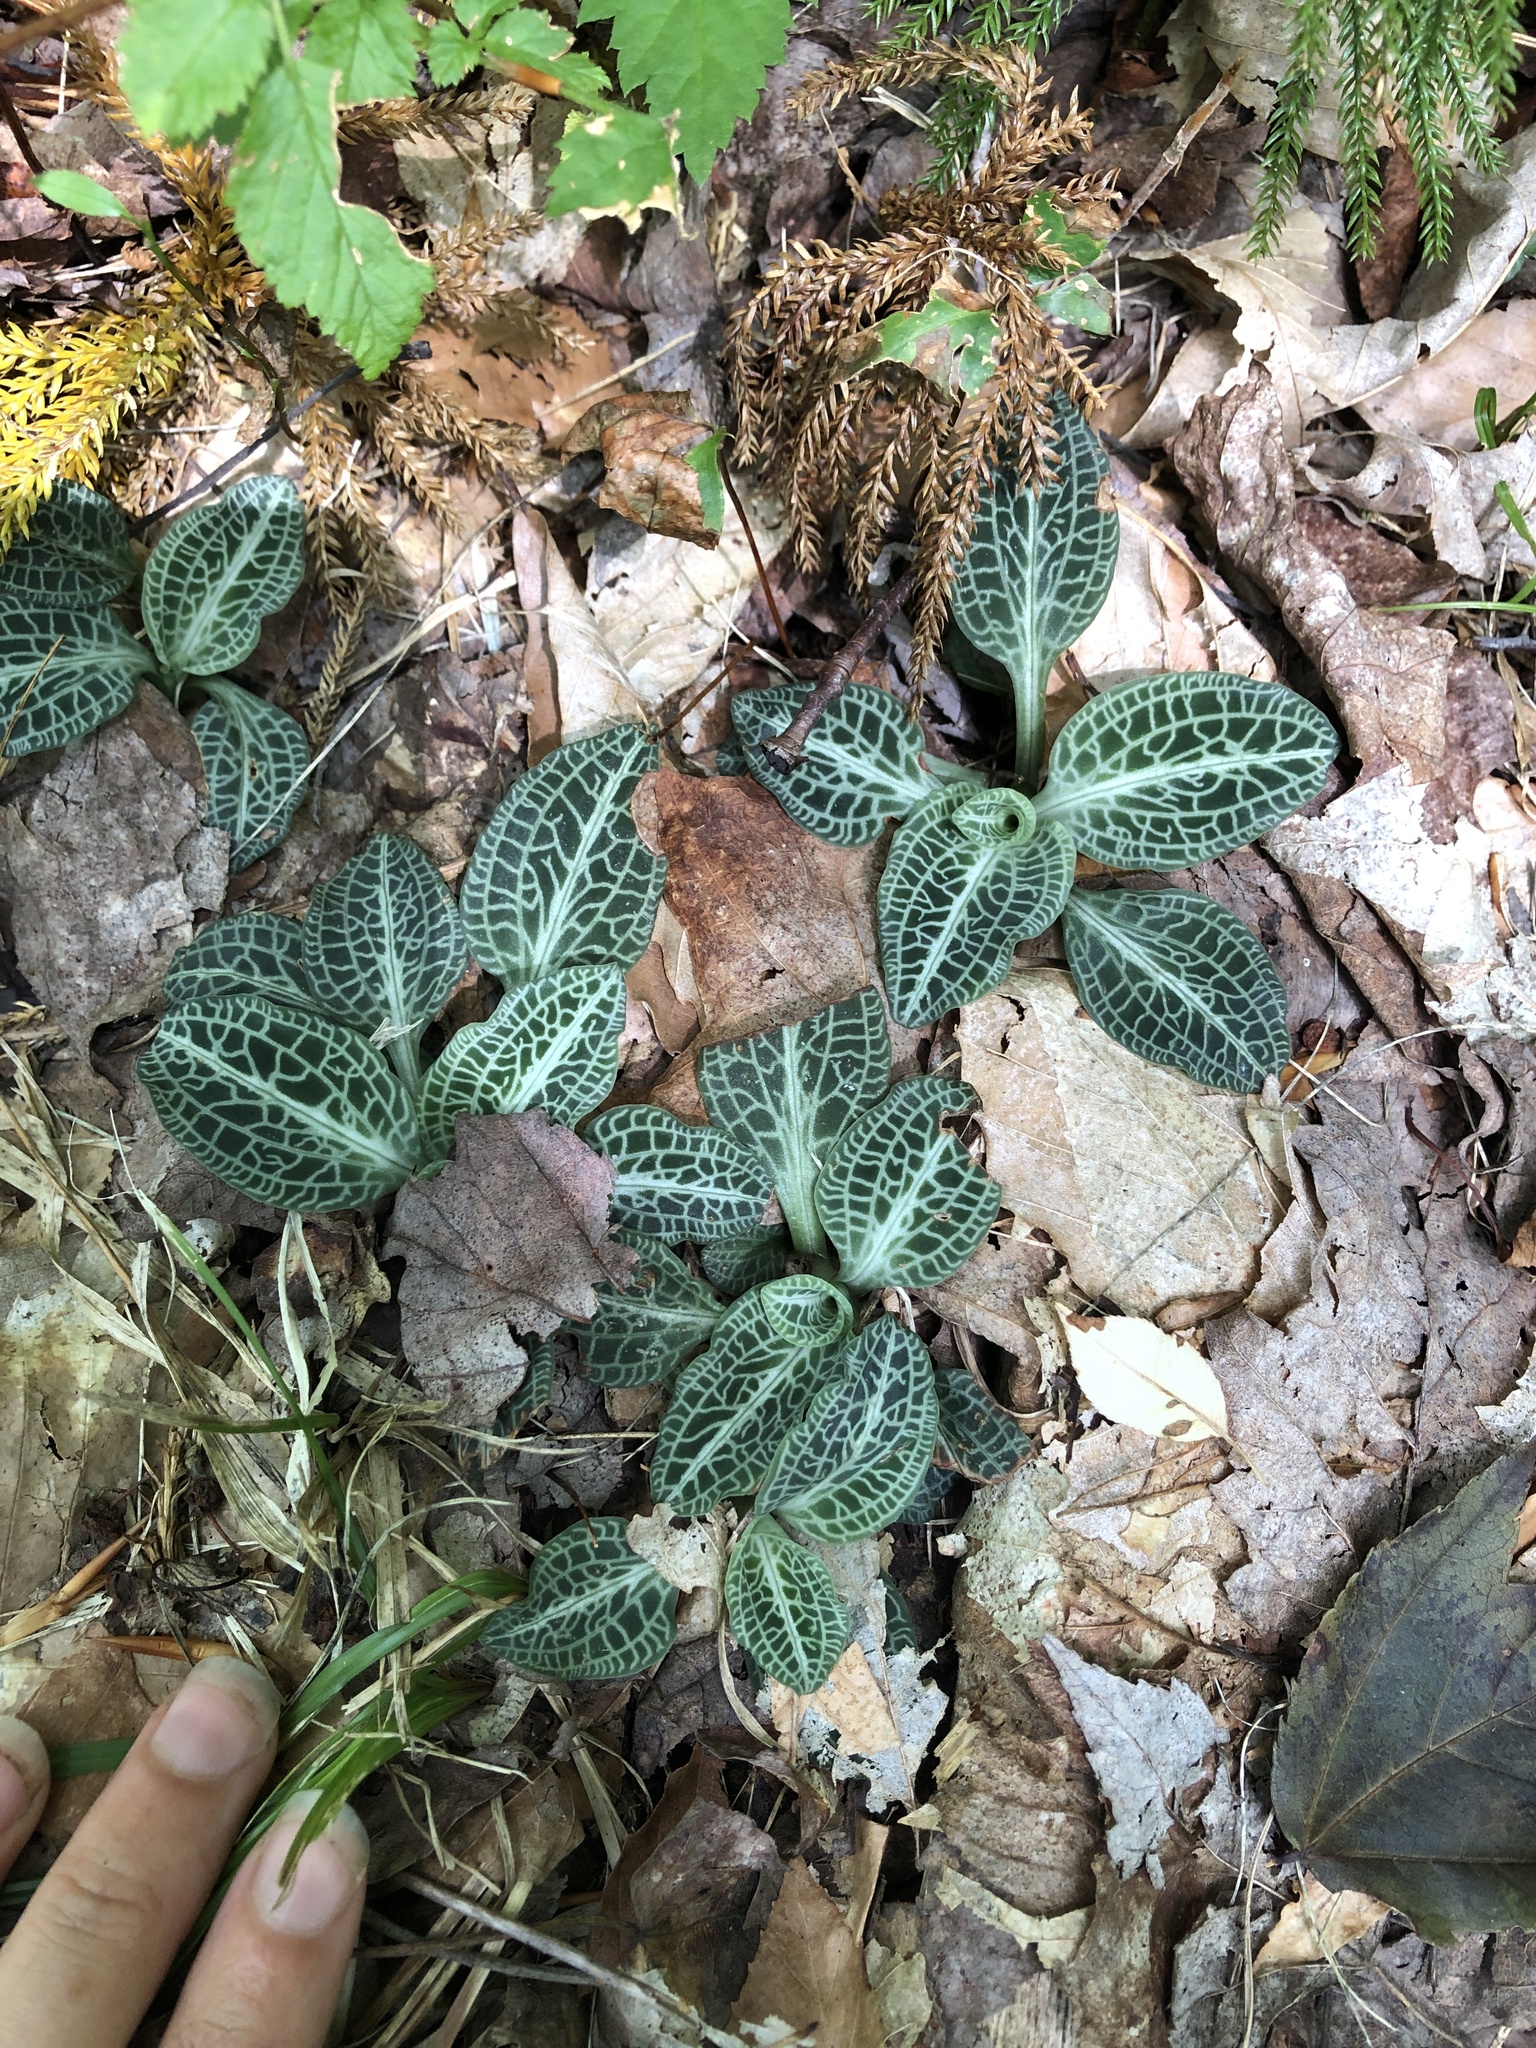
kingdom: Plantae
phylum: Tracheophyta
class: Liliopsida
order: Asparagales
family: Orchidaceae
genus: Goodyera
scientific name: Goodyera pubescens
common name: Downy rattlesnake-plantain
